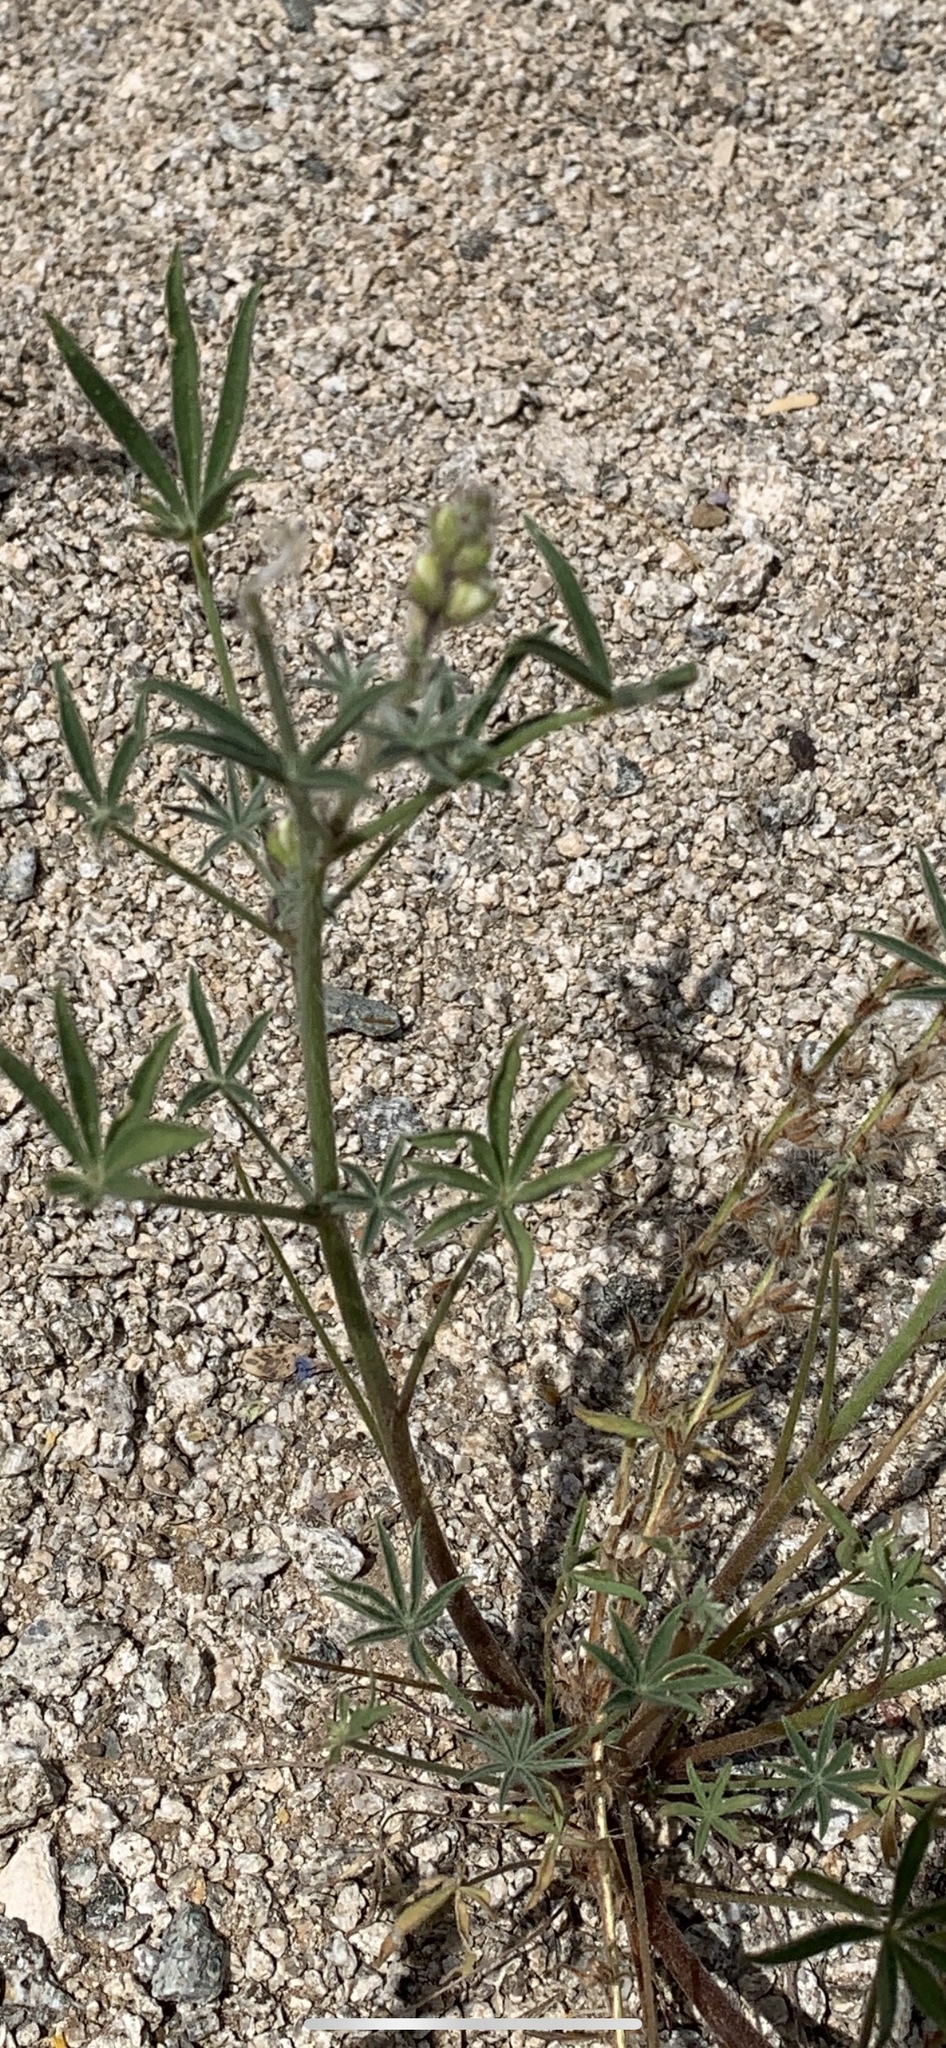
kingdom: Plantae
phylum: Tracheophyta
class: Magnoliopsida
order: Fabales
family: Fabaceae
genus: Lupinus
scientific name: Lupinus sparsiflorus
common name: Coulter's lupine
